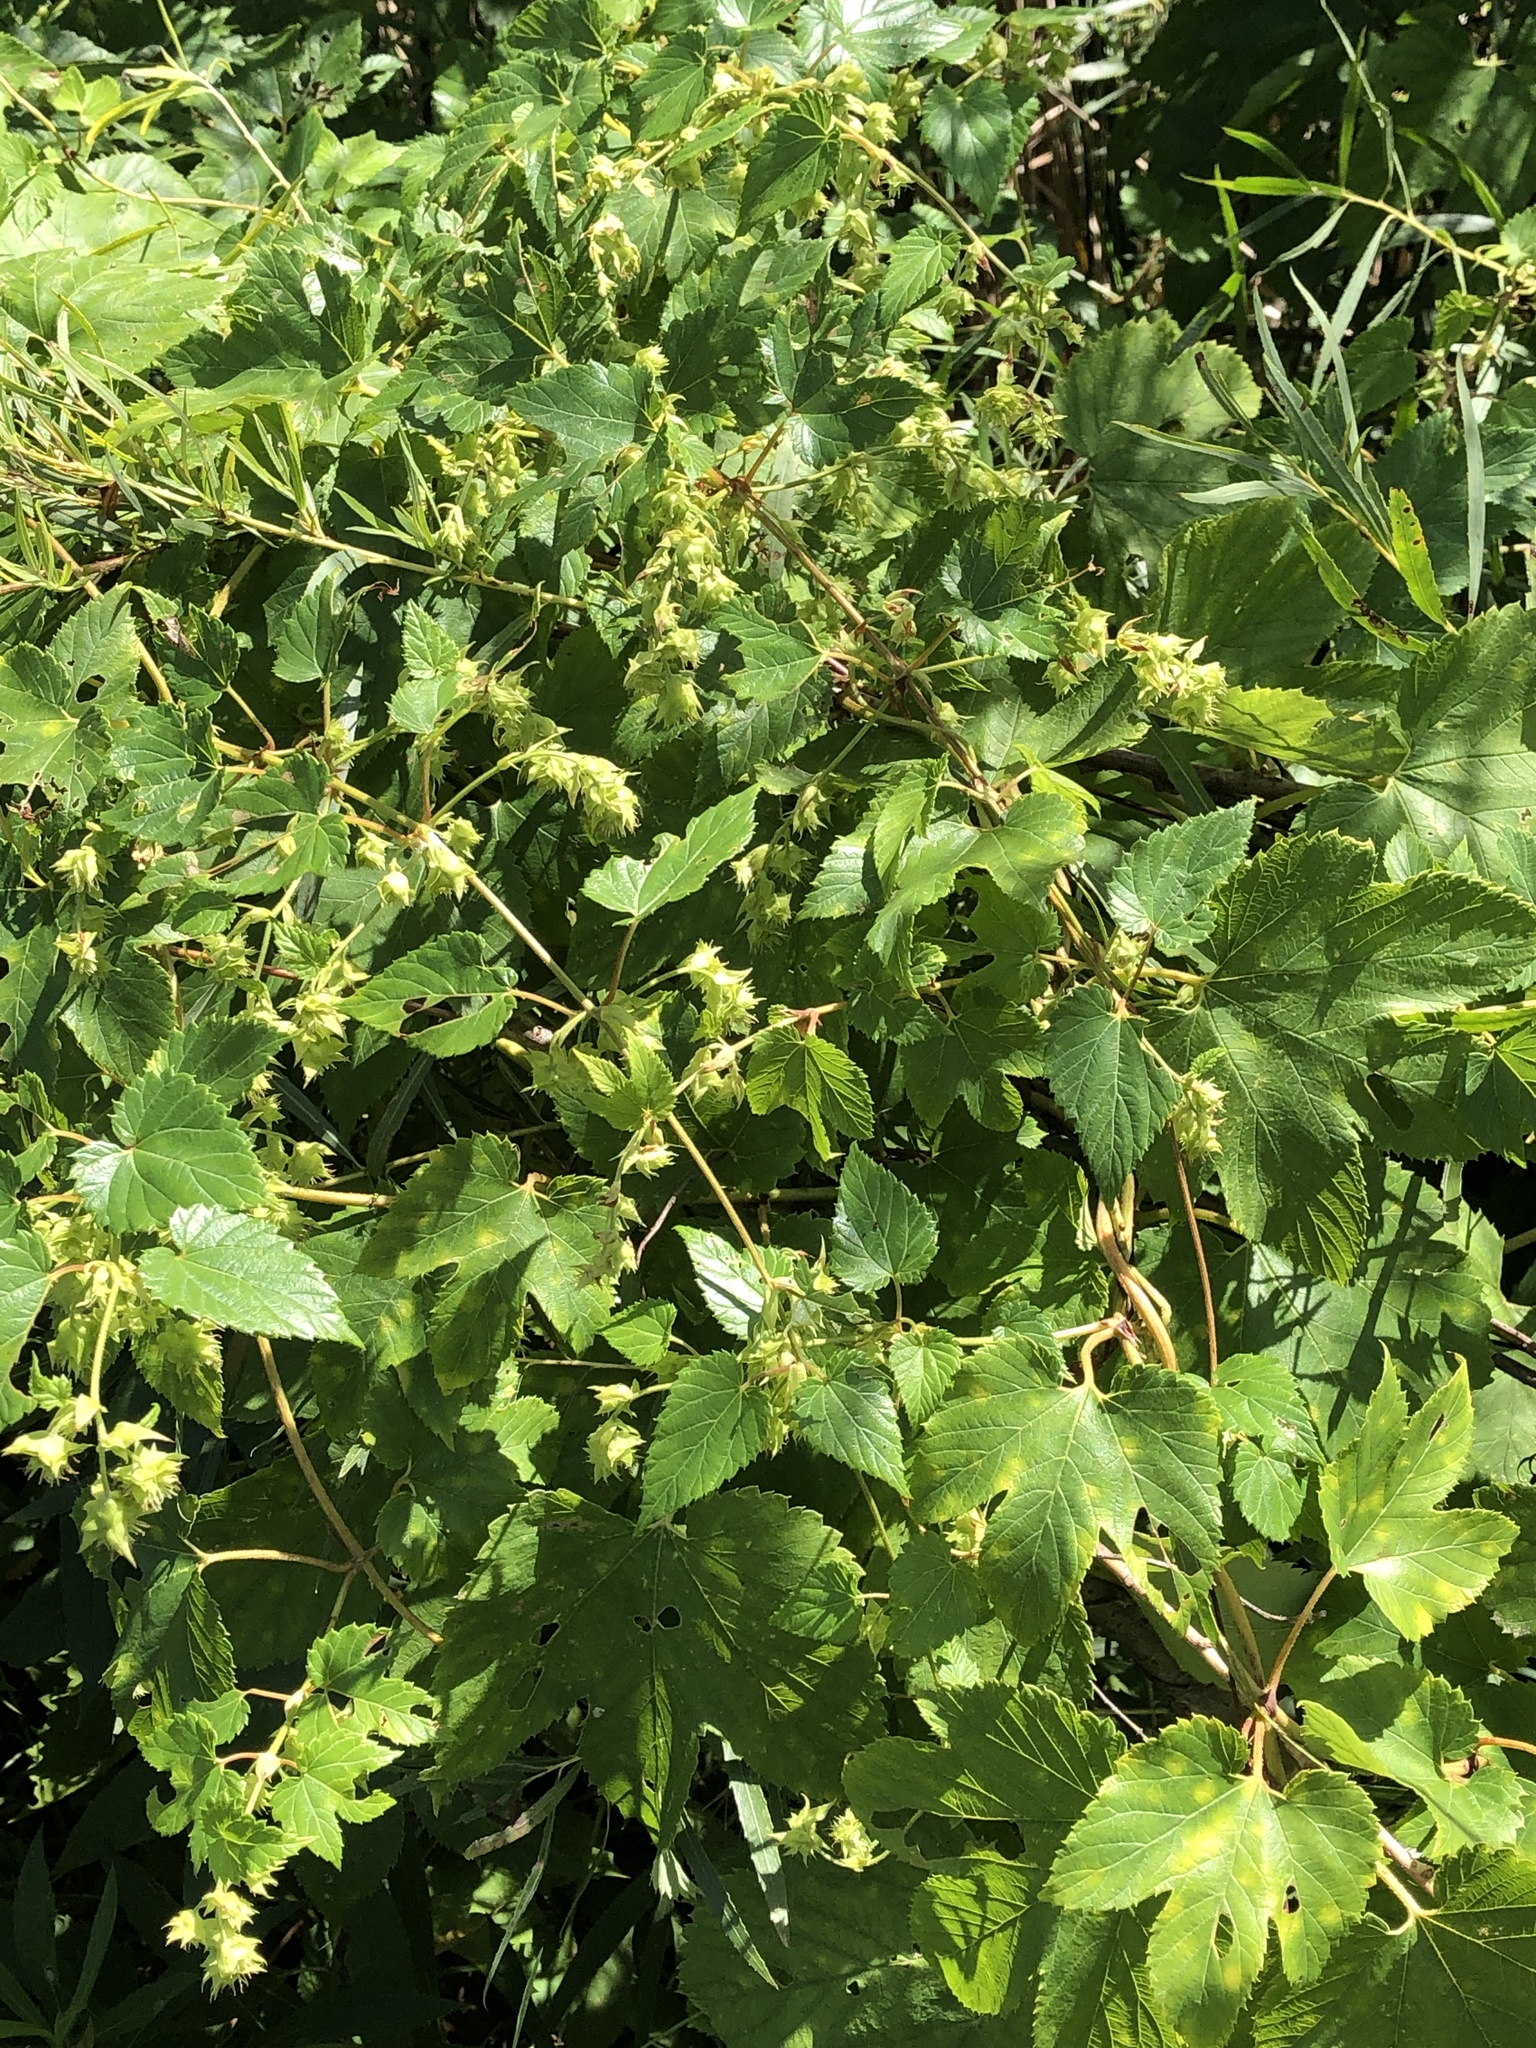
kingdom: Plantae
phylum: Tracheophyta
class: Magnoliopsida
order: Rosales
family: Cannabaceae
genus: Humulus
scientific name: Humulus lupulus
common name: Hop
